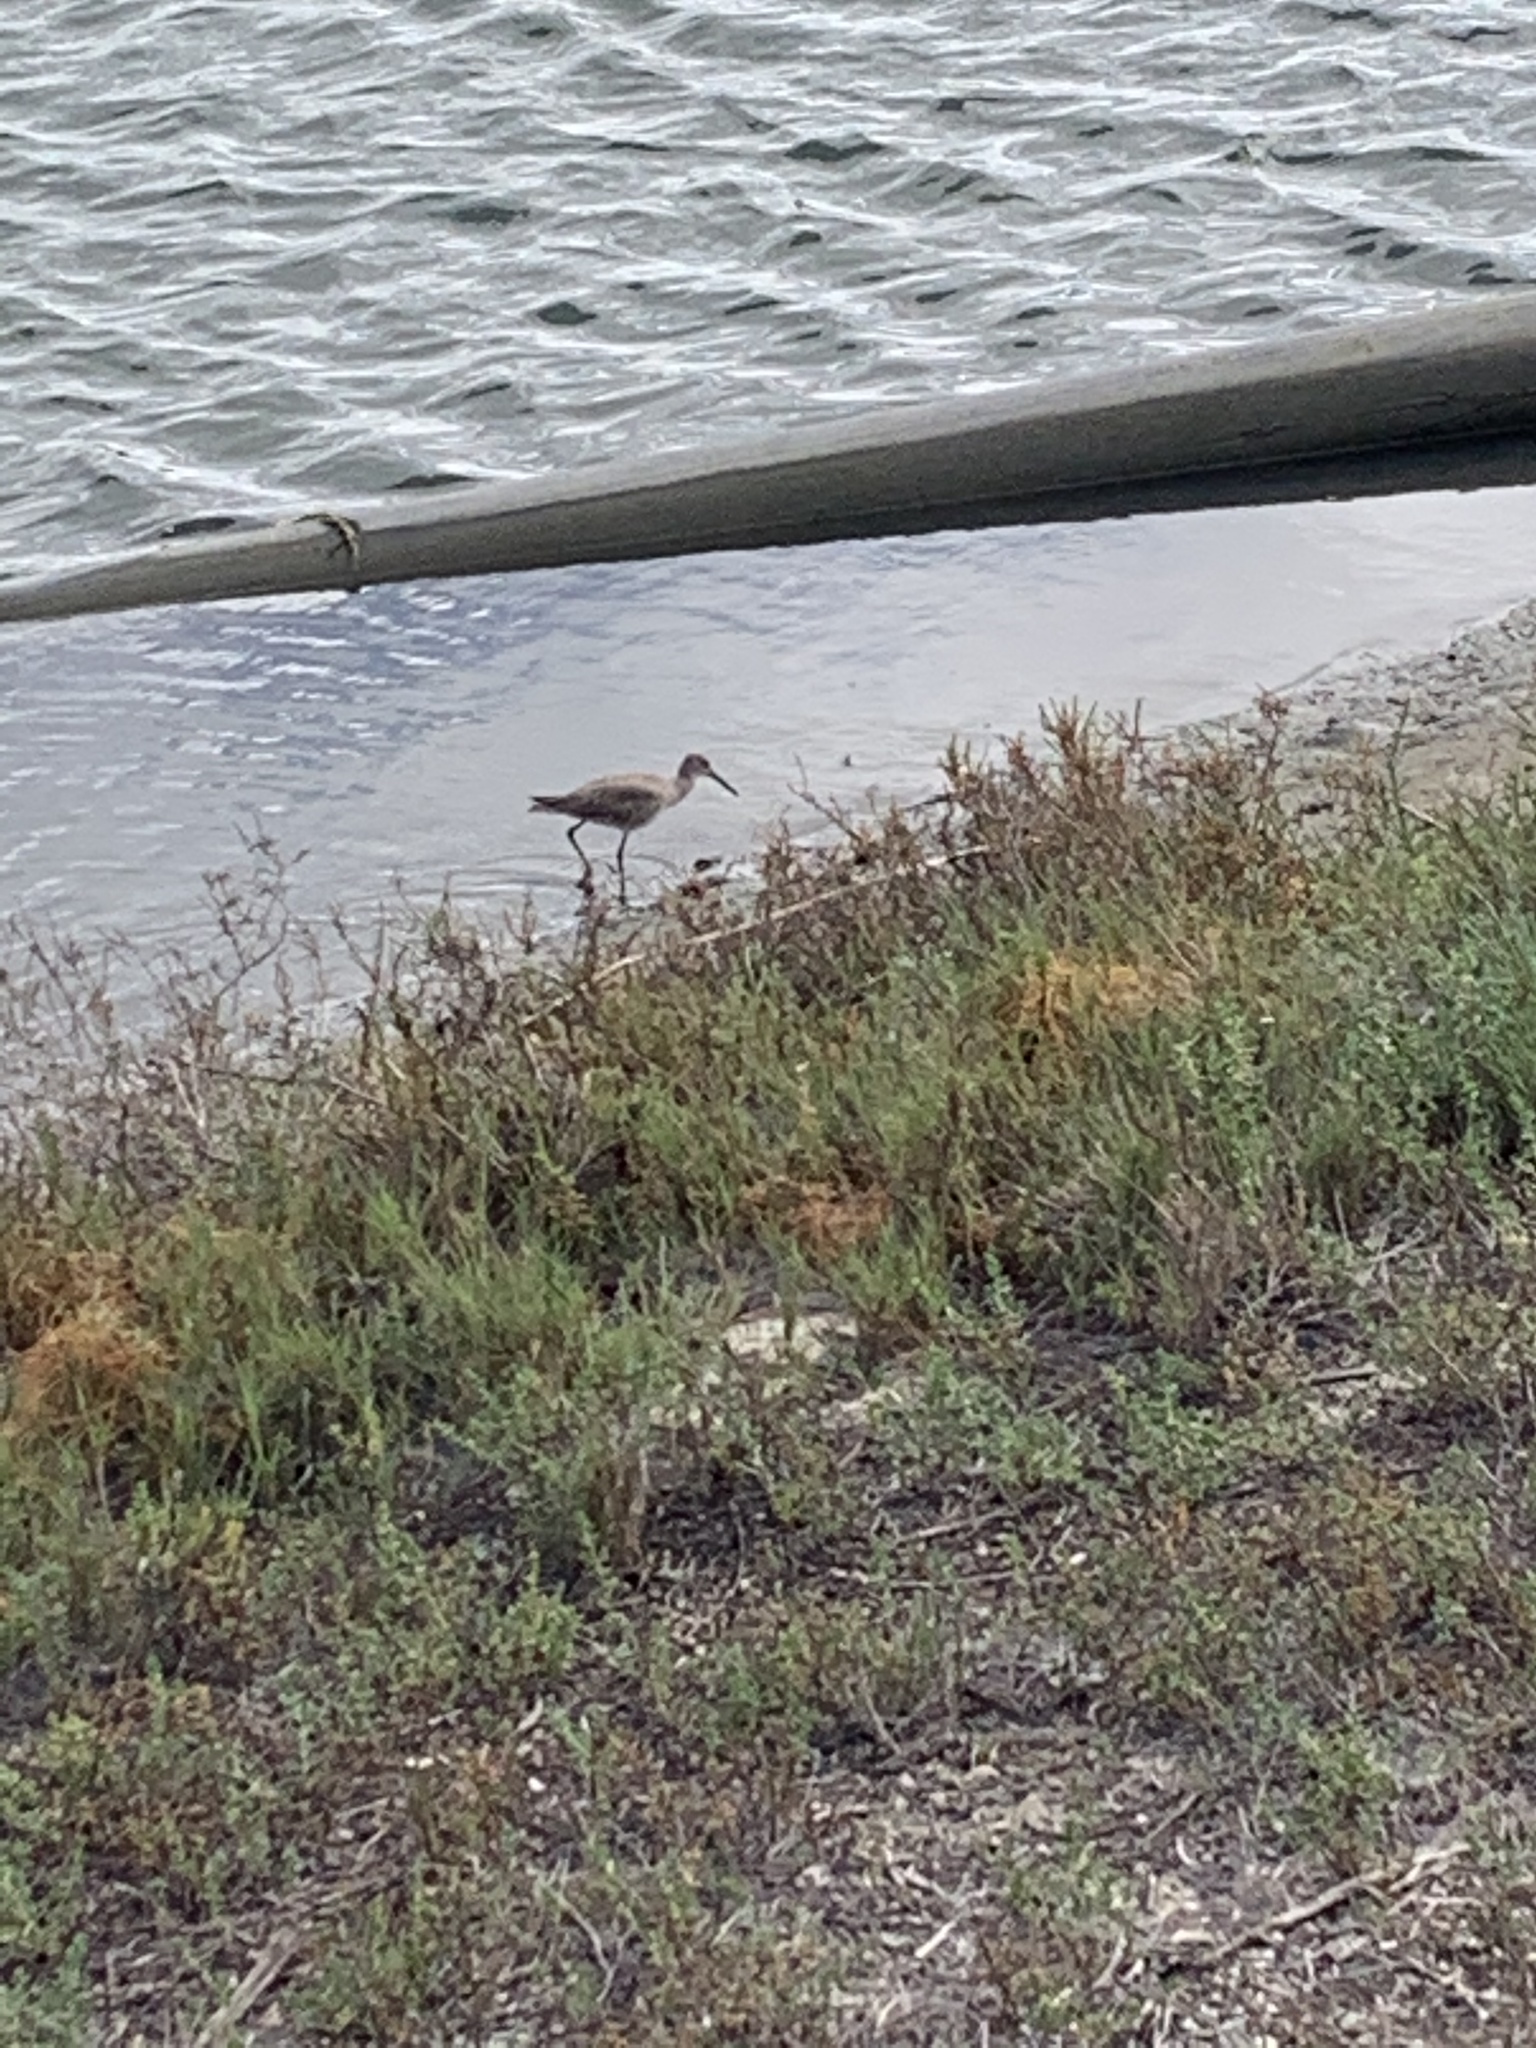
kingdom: Animalia
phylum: Chordata
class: Aves
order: Charadriiformes
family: Scolopacidae
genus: Tringa
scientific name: Tringa semipalmata
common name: Willet
